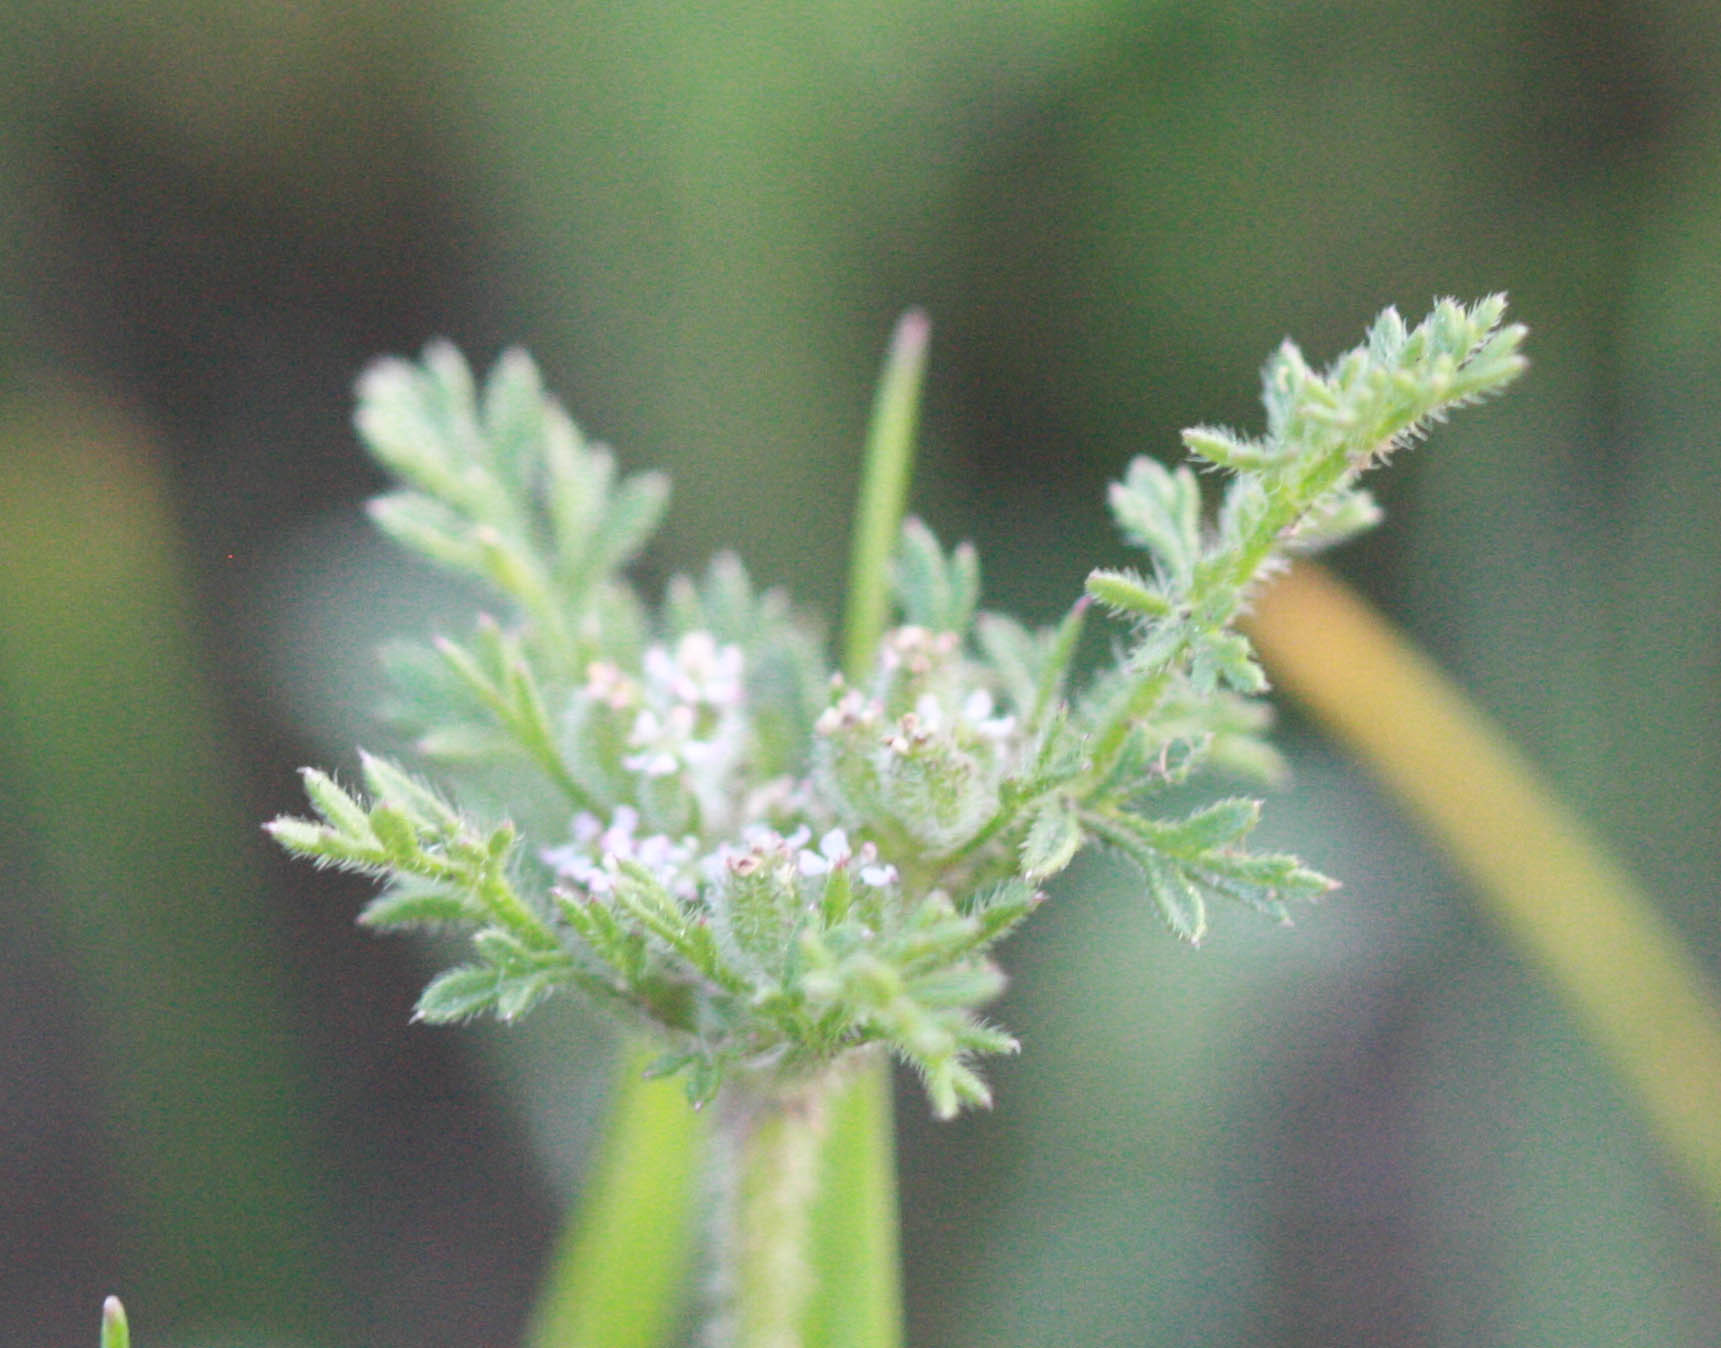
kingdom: Plantae
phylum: Tracheophyta
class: Magnoliopsida
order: Apiales
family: Apiaceae
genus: Daucus
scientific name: Daucus pusillus
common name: Southwest wild carrot
